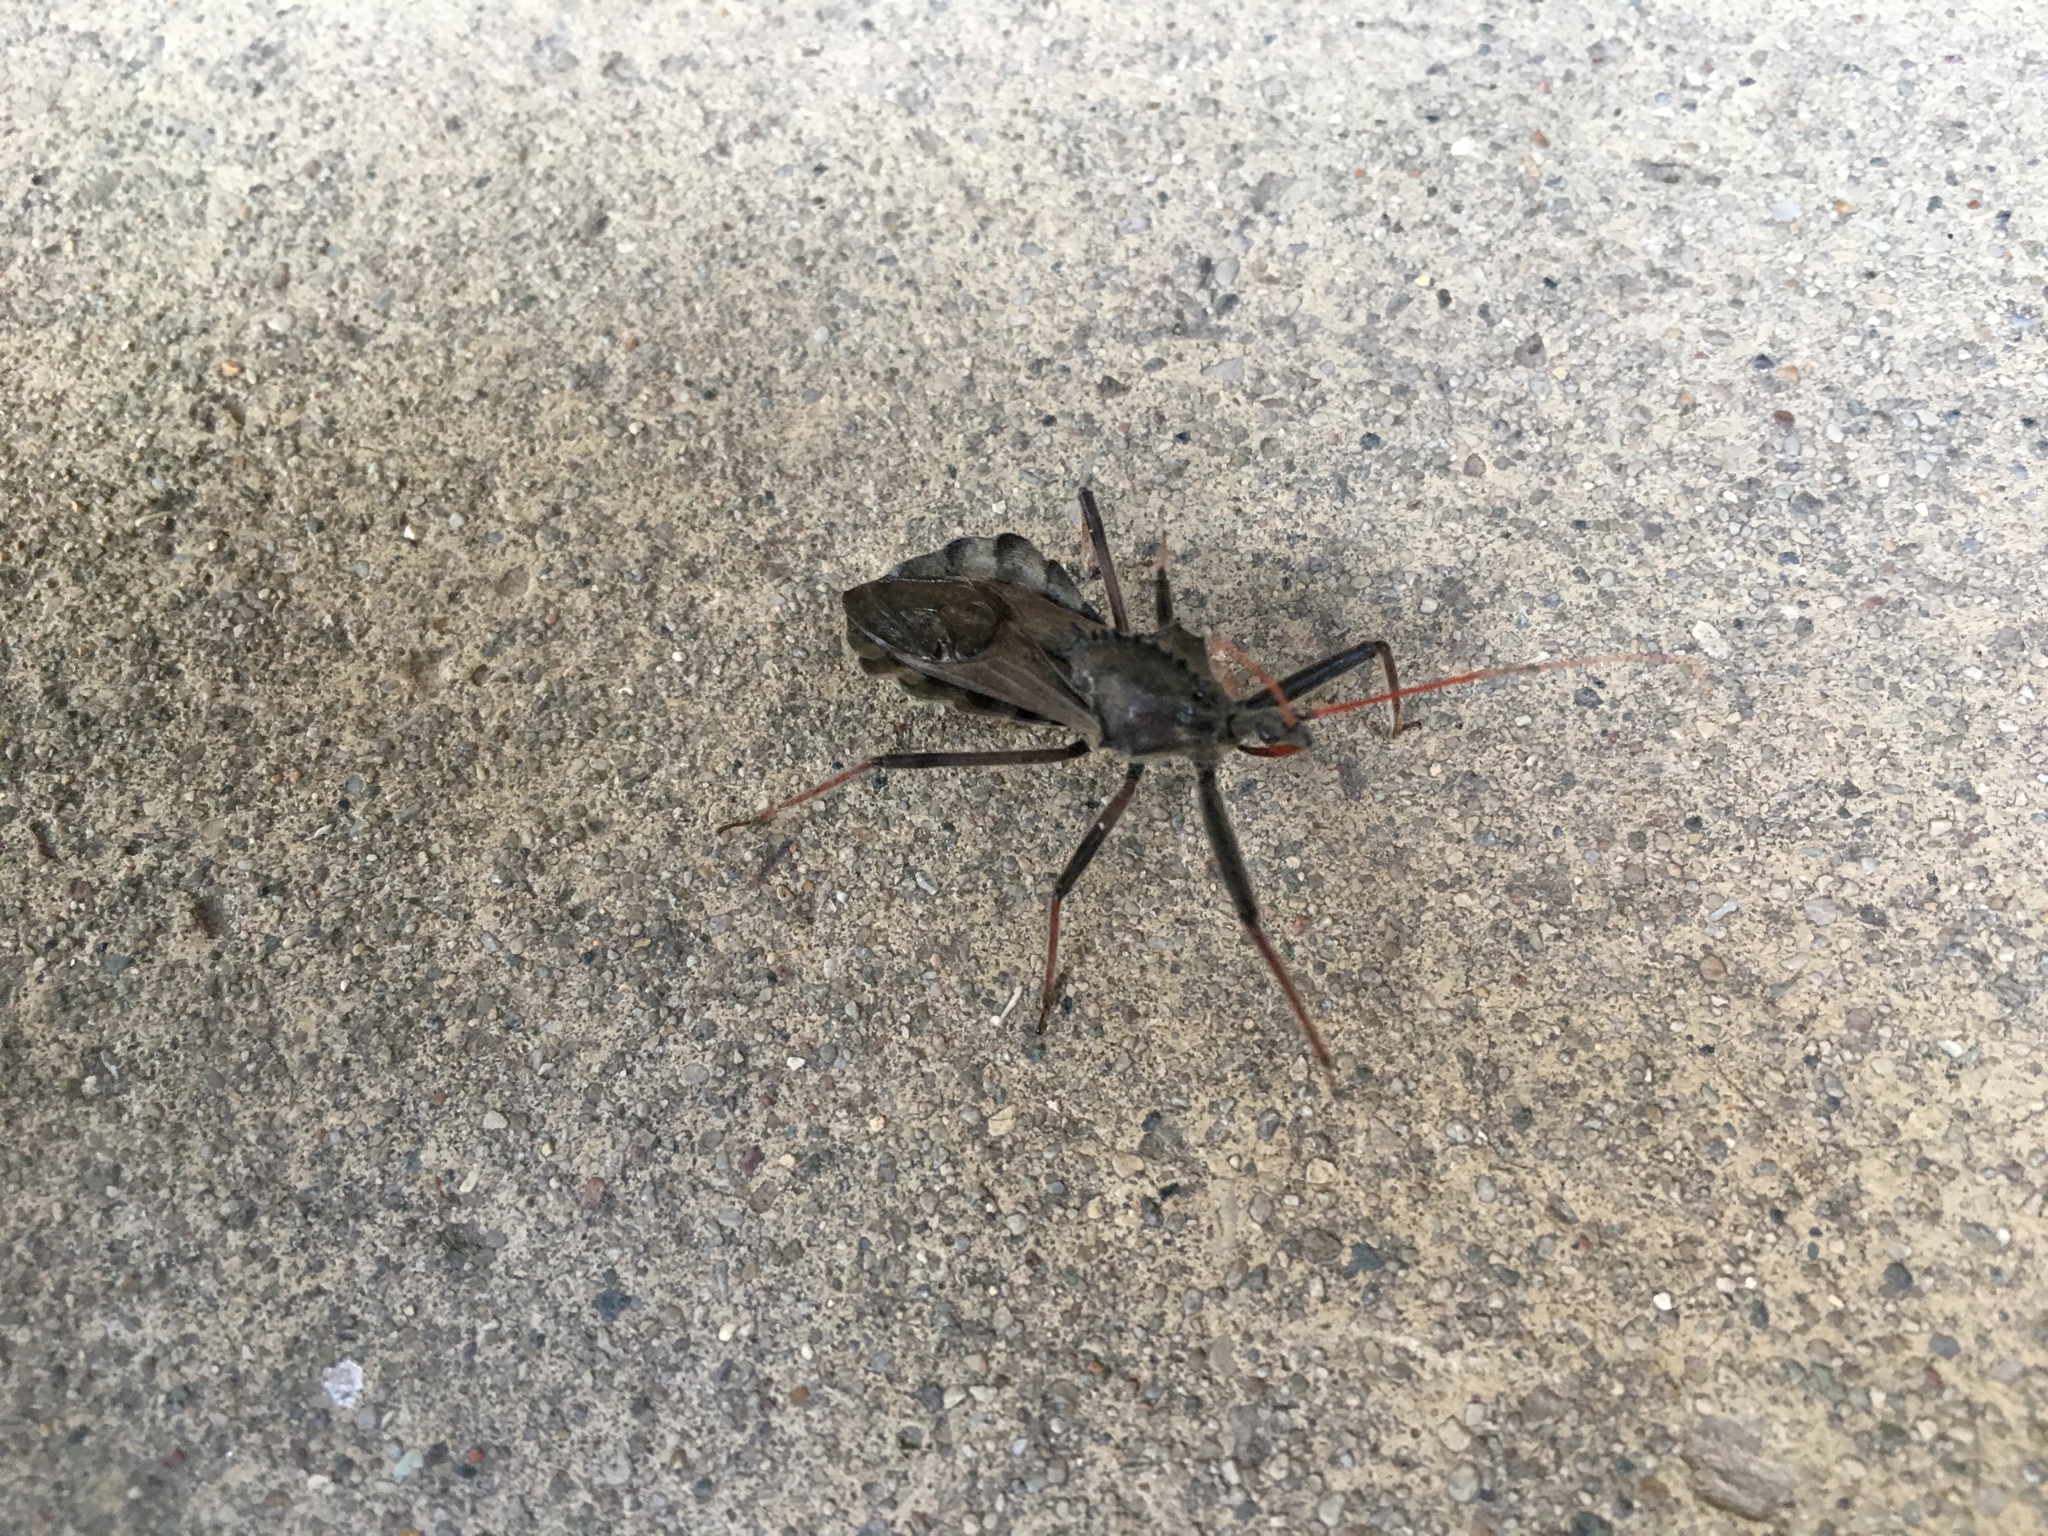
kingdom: Animalia
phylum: Arthropoda
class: Insecta
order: Hemiptera
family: Reduviidae
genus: Arilus
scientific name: Arilus cristatus
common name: North american wheel bug
